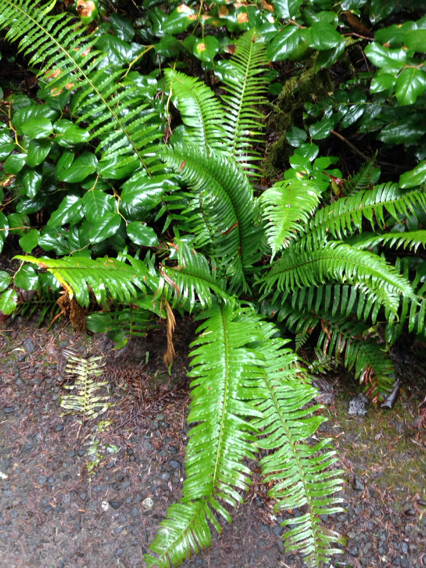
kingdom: Plantae
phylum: Tracheophyta
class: Polypodiopsida
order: Polypodiales
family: Dryopteridaceae
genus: Polystichum
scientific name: Polystichum munitum
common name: Western sword-fern
